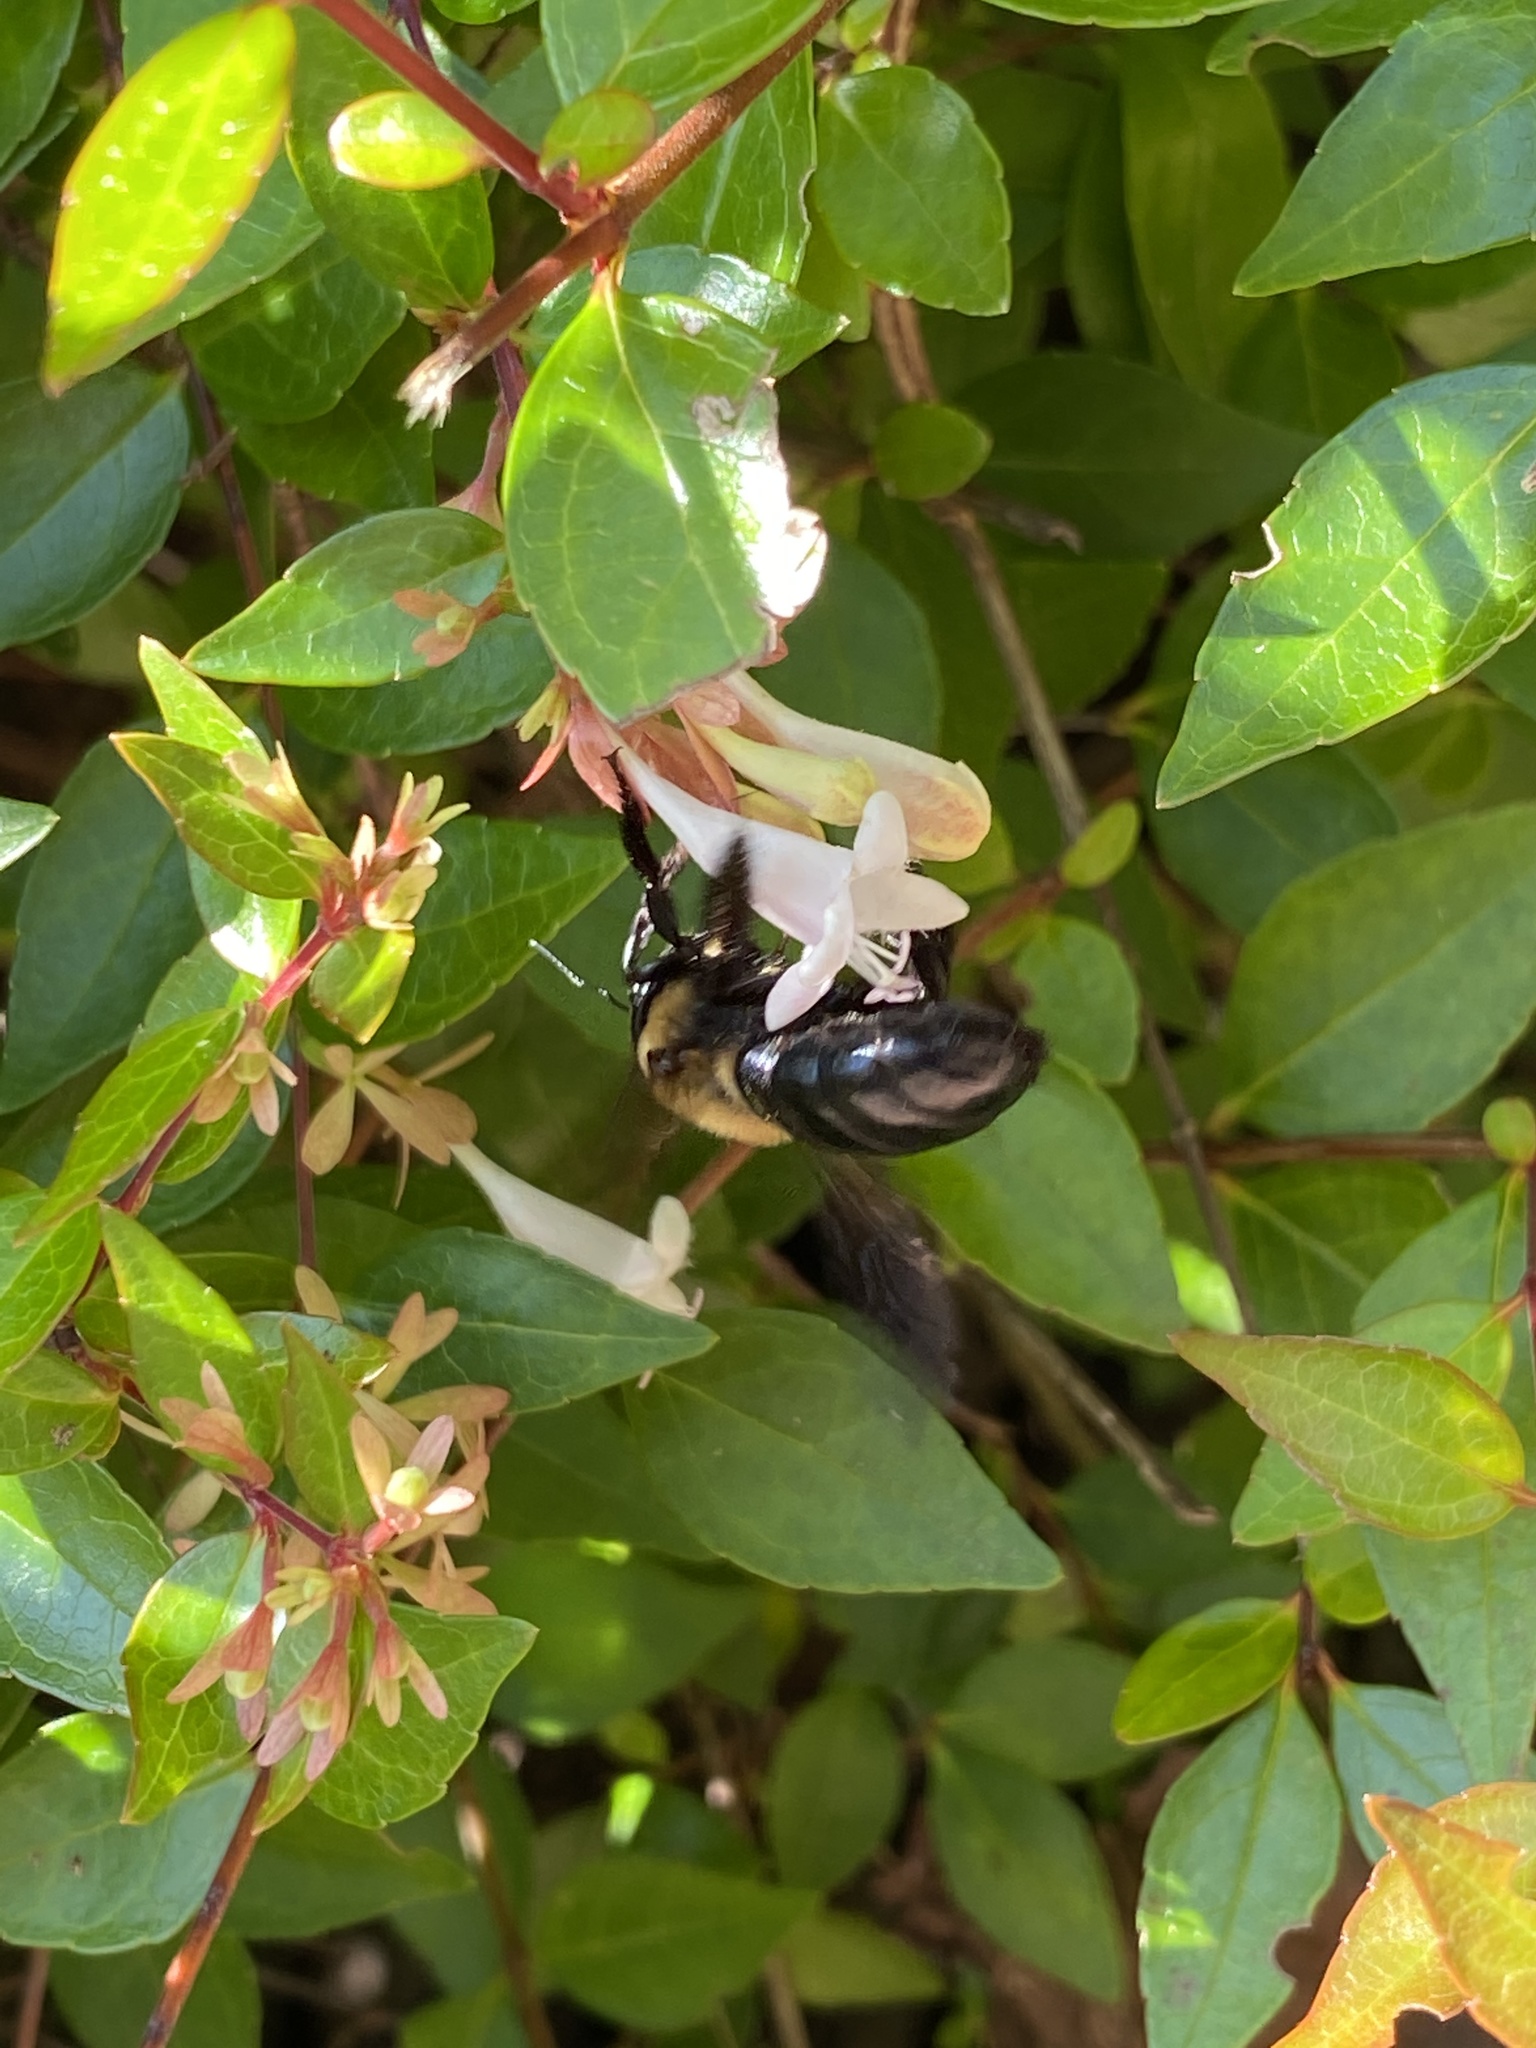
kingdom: Animalia
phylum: Arthropoda
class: Insecta
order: Hymenoptera
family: Apidae
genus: Xylocopa
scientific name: Xylocopa virginica
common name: Carpenter bee
